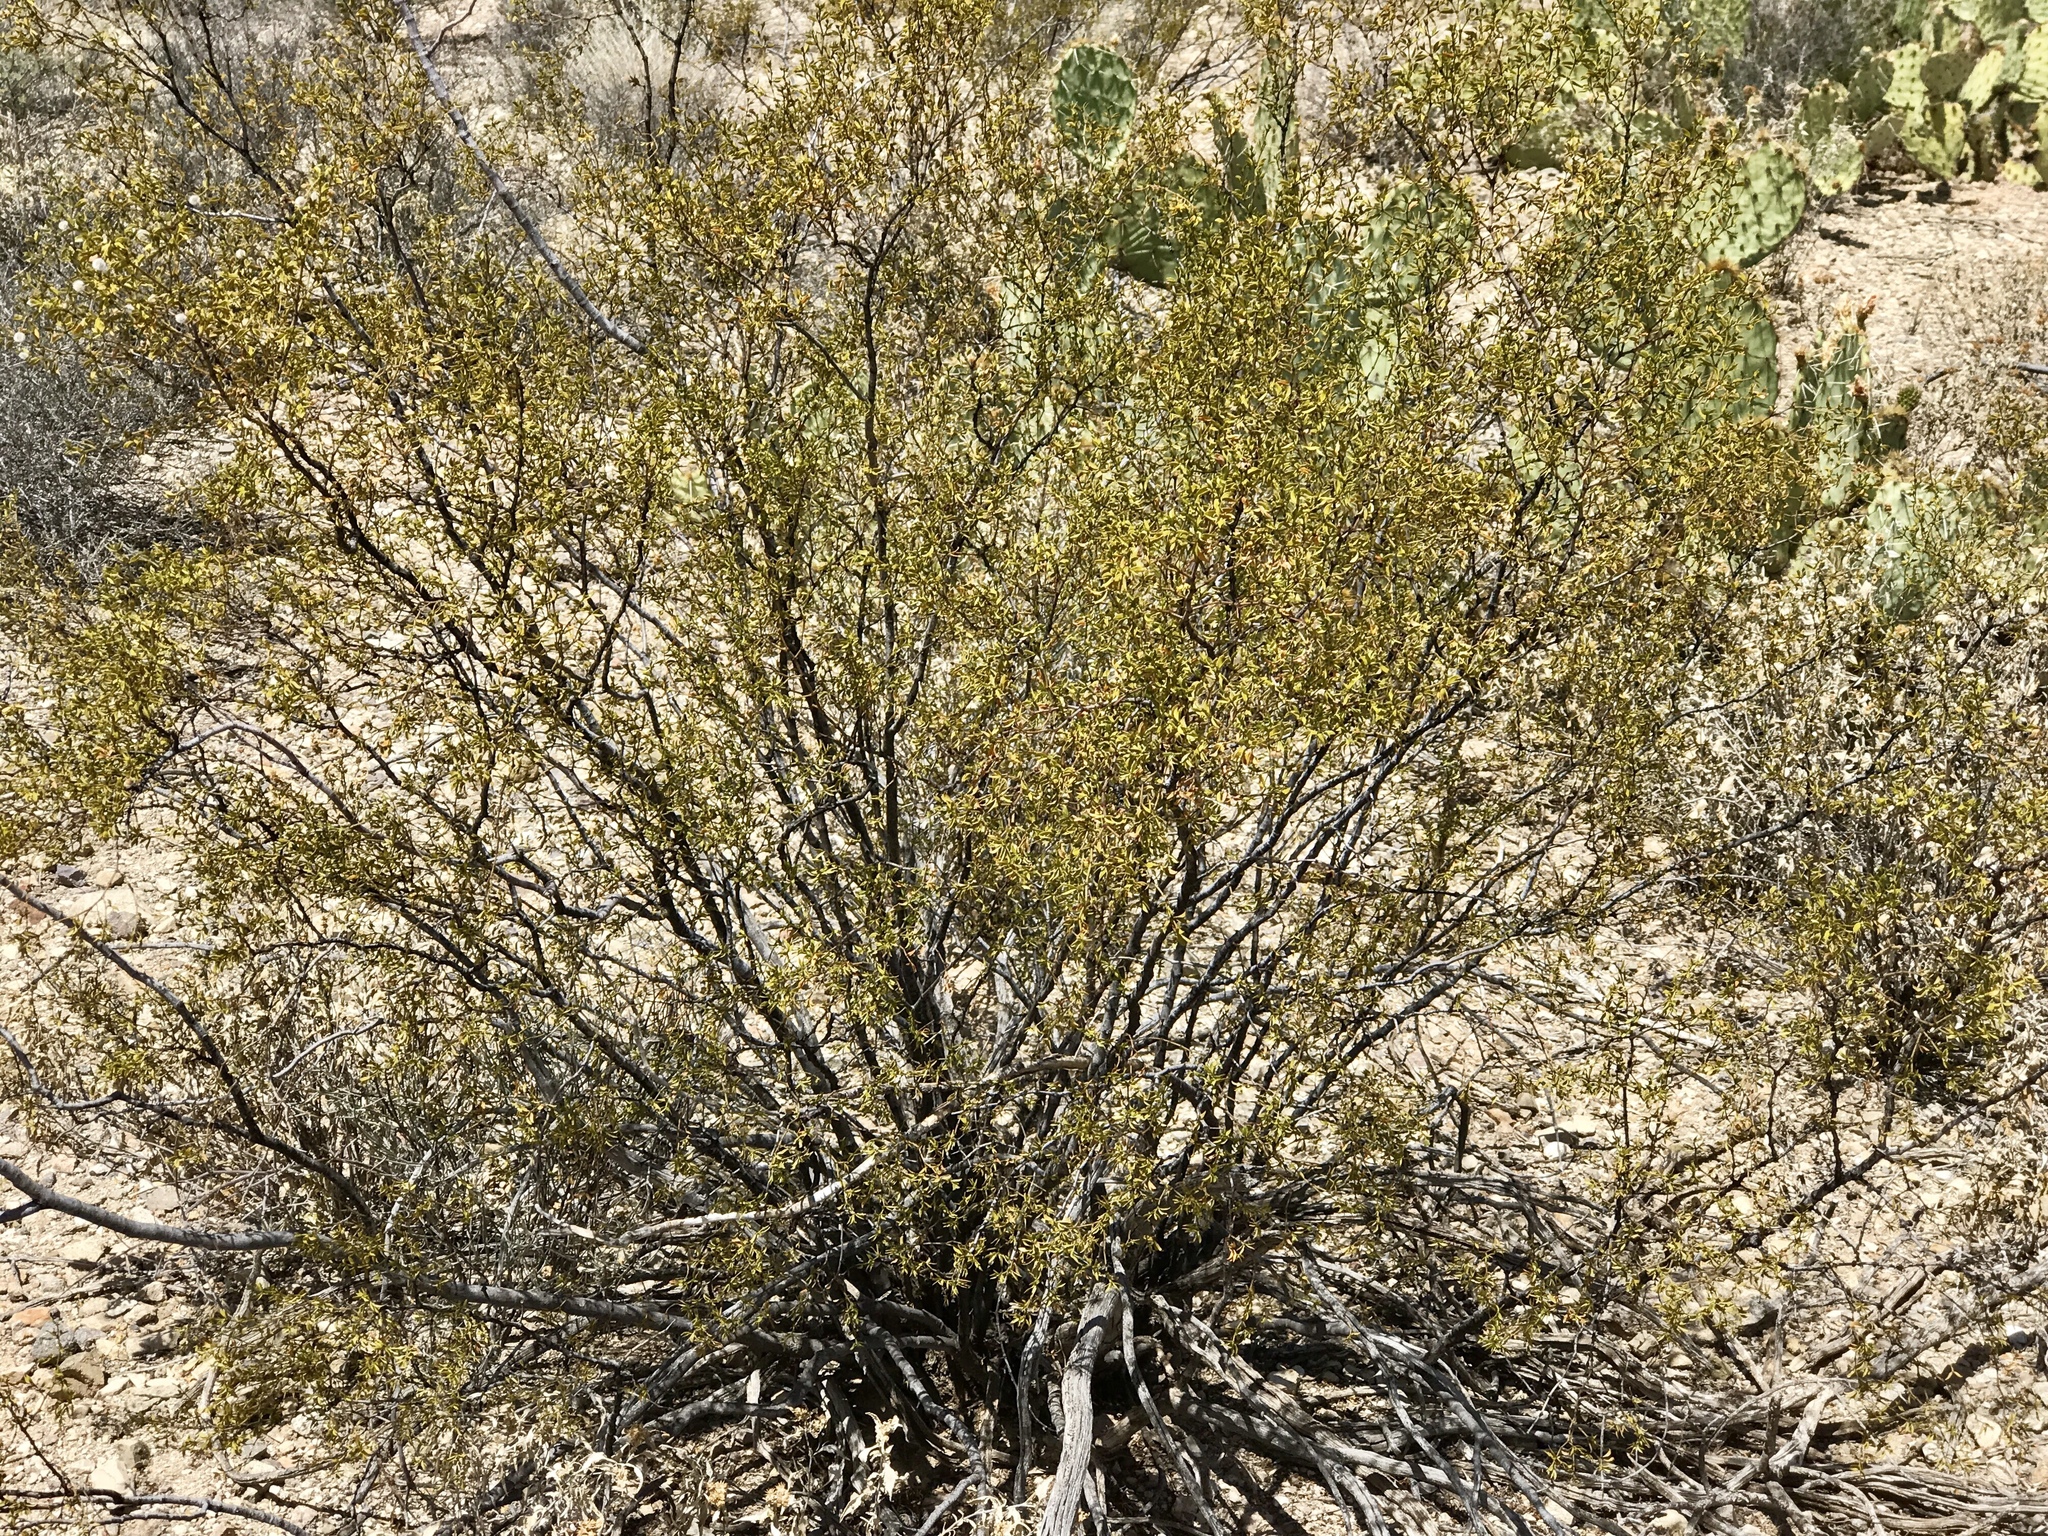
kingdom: Plantae
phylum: Tracheophyta
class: Magnoliopsida
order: Zygophyllales
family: Zygophyllaceae
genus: Larrea
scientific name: Larrea tridentata
